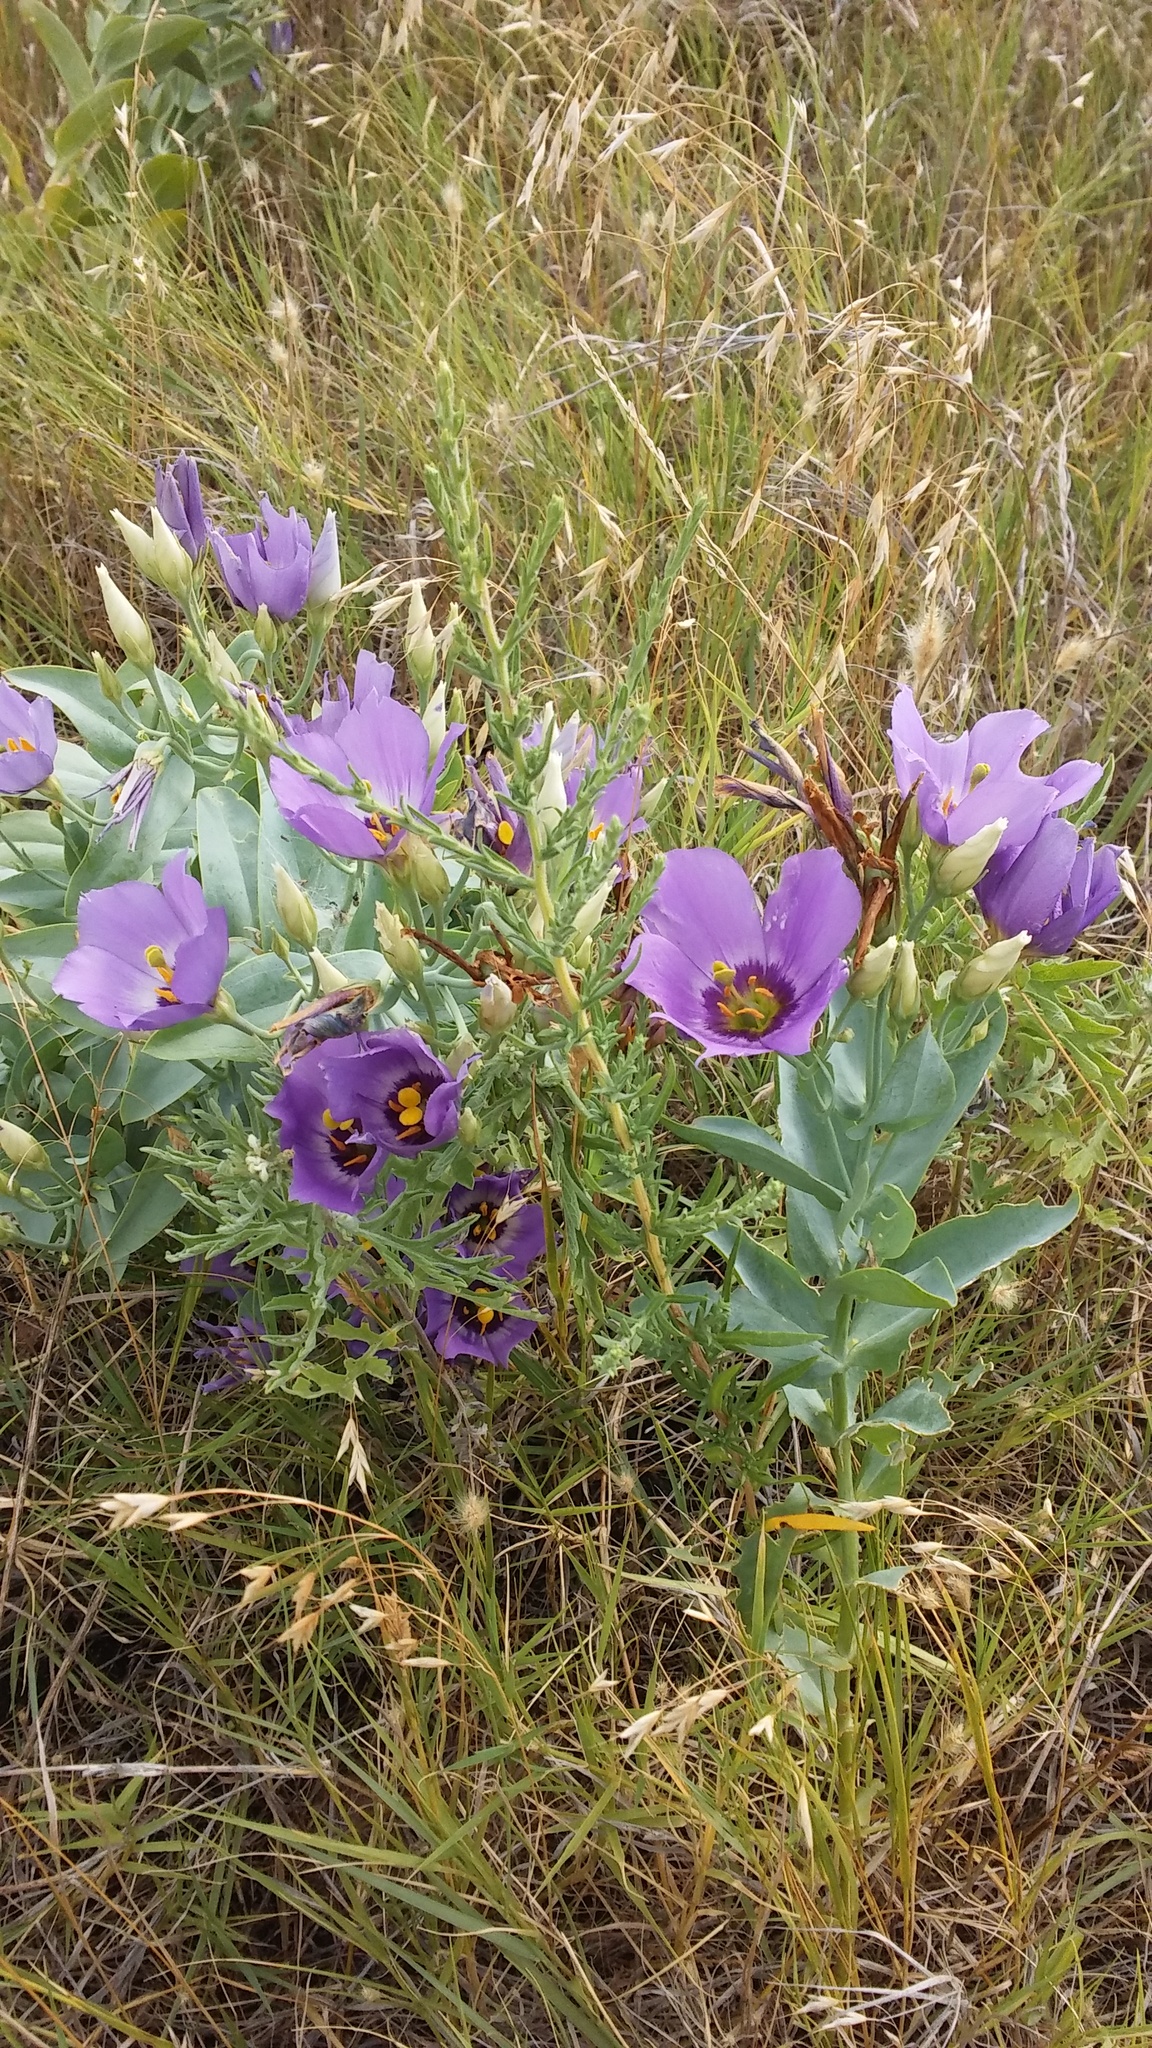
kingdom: Plantae
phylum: Tracheophyta
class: Magnoliopsida
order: Gentianales
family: Gentianaceae
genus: Eustoma
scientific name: Eustoma exaltatum
